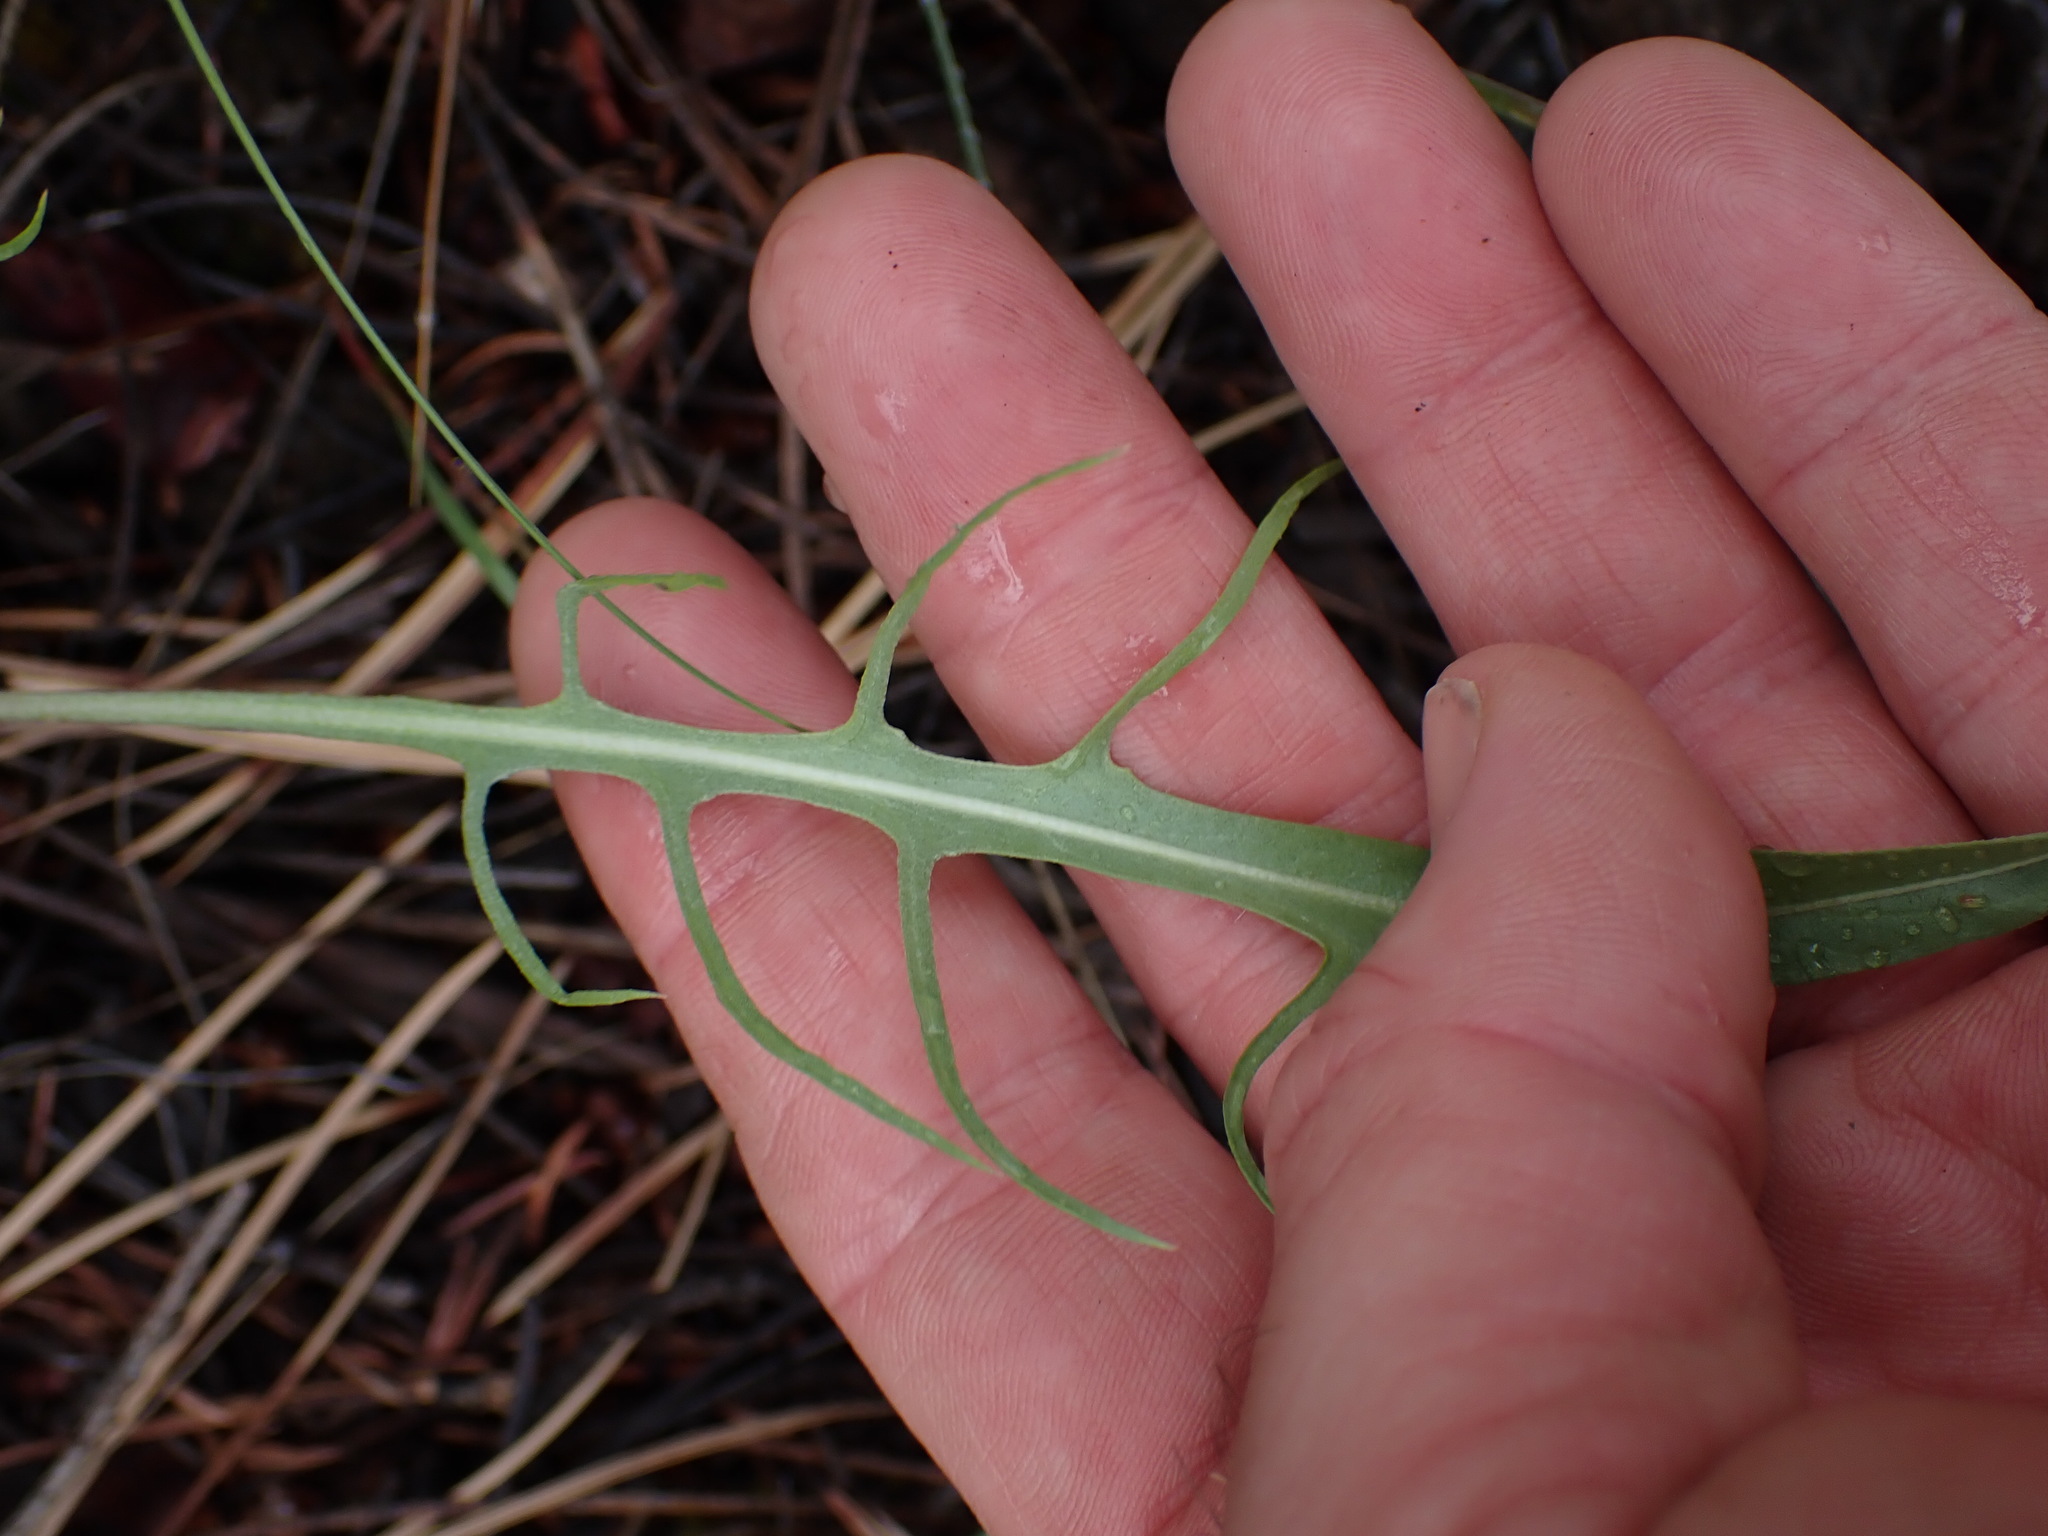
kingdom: Plantae
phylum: Tracheophyta
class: Magnoliopsida
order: Asterales
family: Asteraceae
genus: Crepis
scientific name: Crepis atribarba
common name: Dark hawk's-beard
